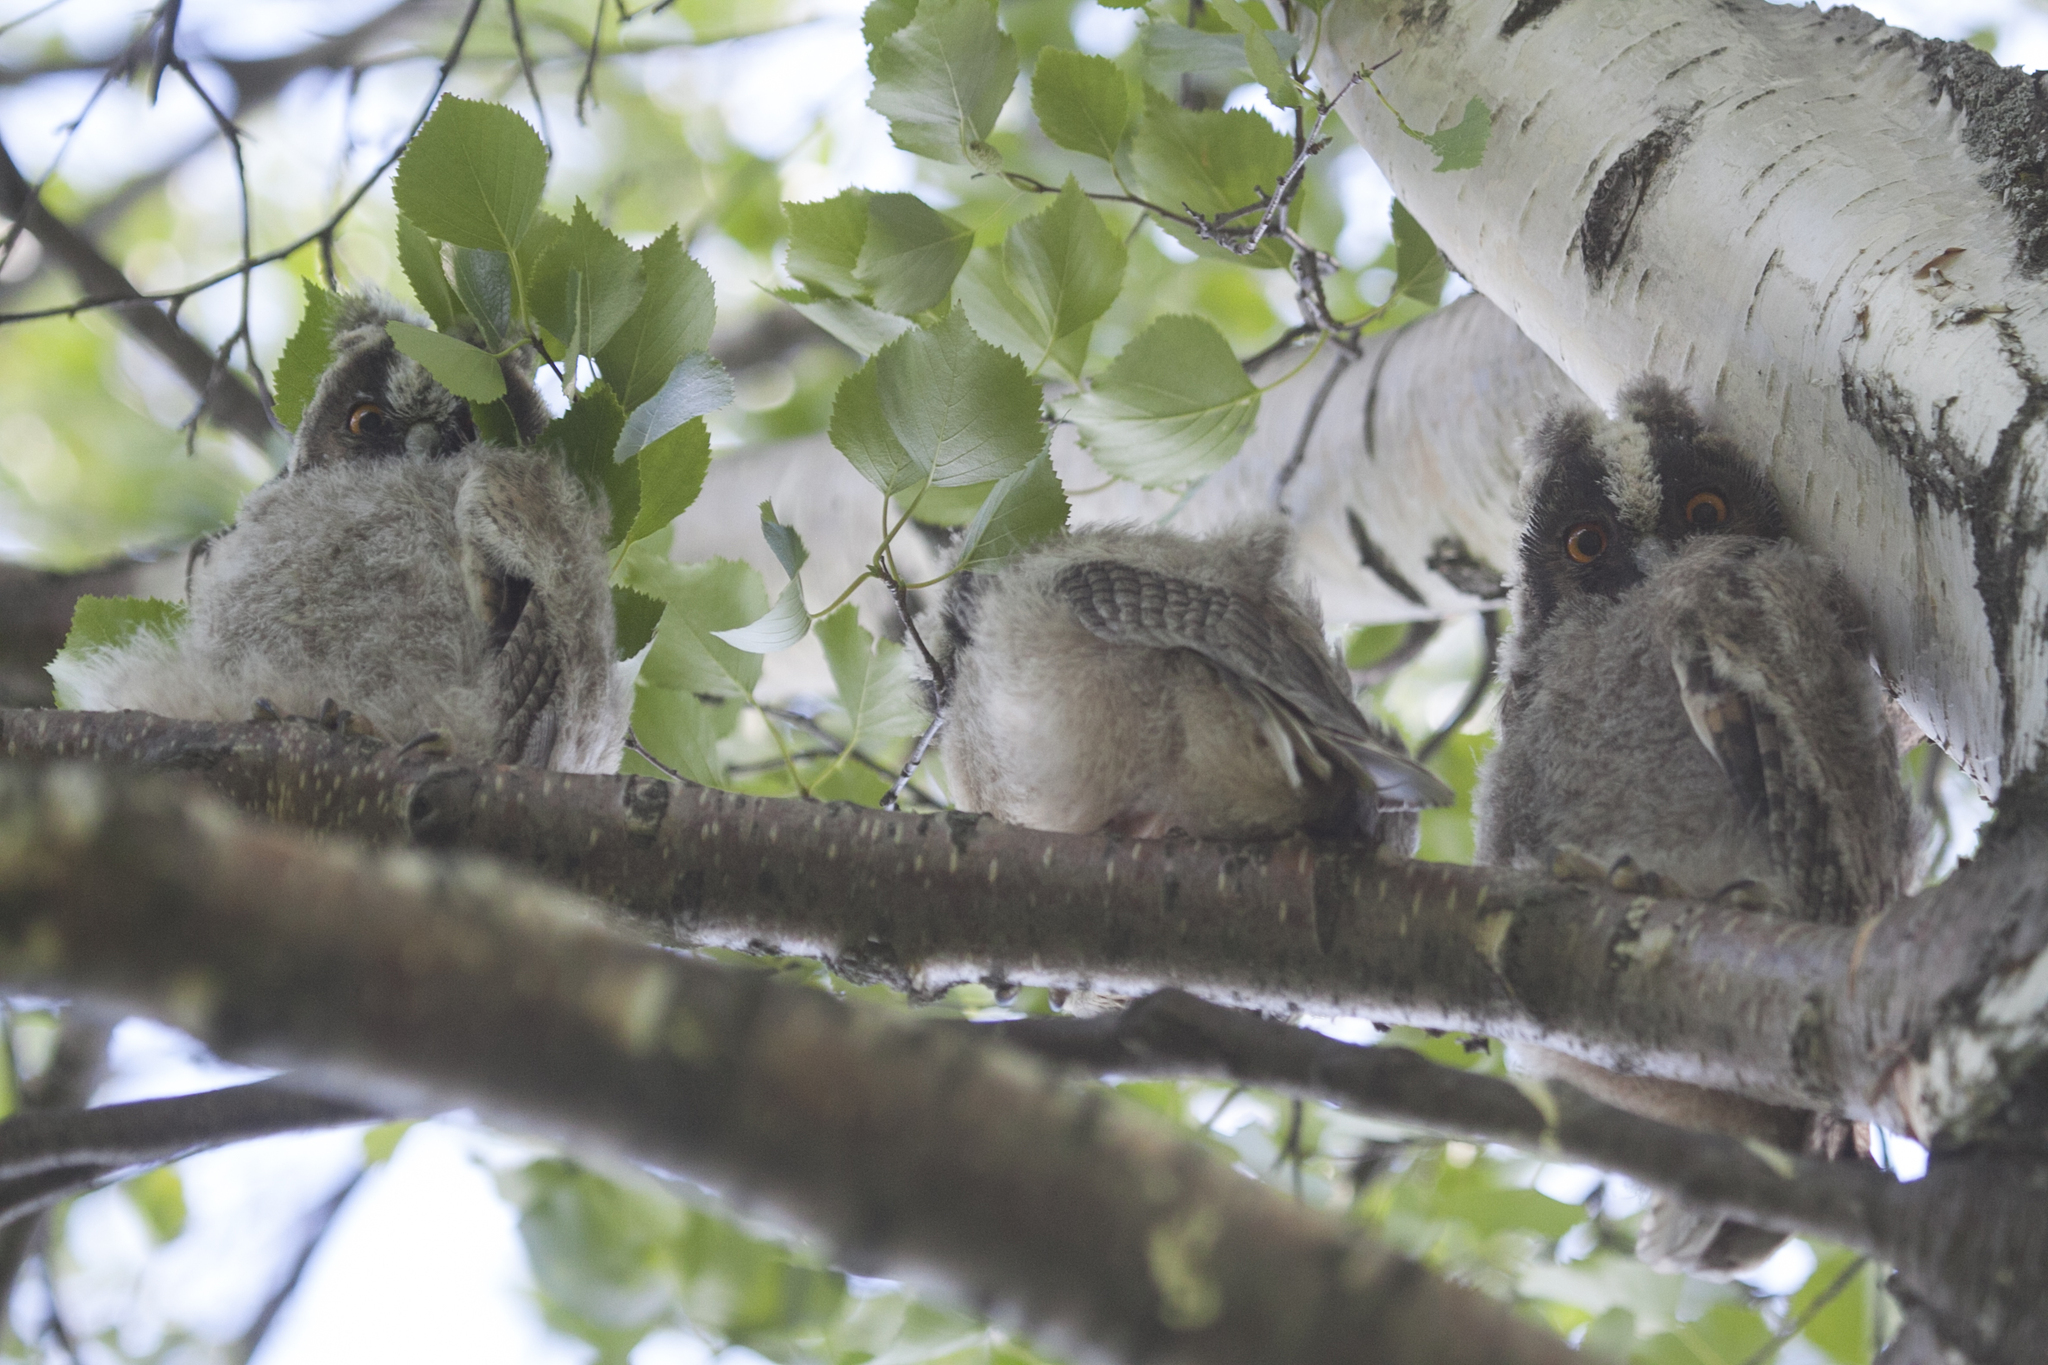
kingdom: Animalia
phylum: Chordata
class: Aves
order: Strigiformes
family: Strigidae
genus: Asio
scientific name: Asio otus
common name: Long-eared owl
